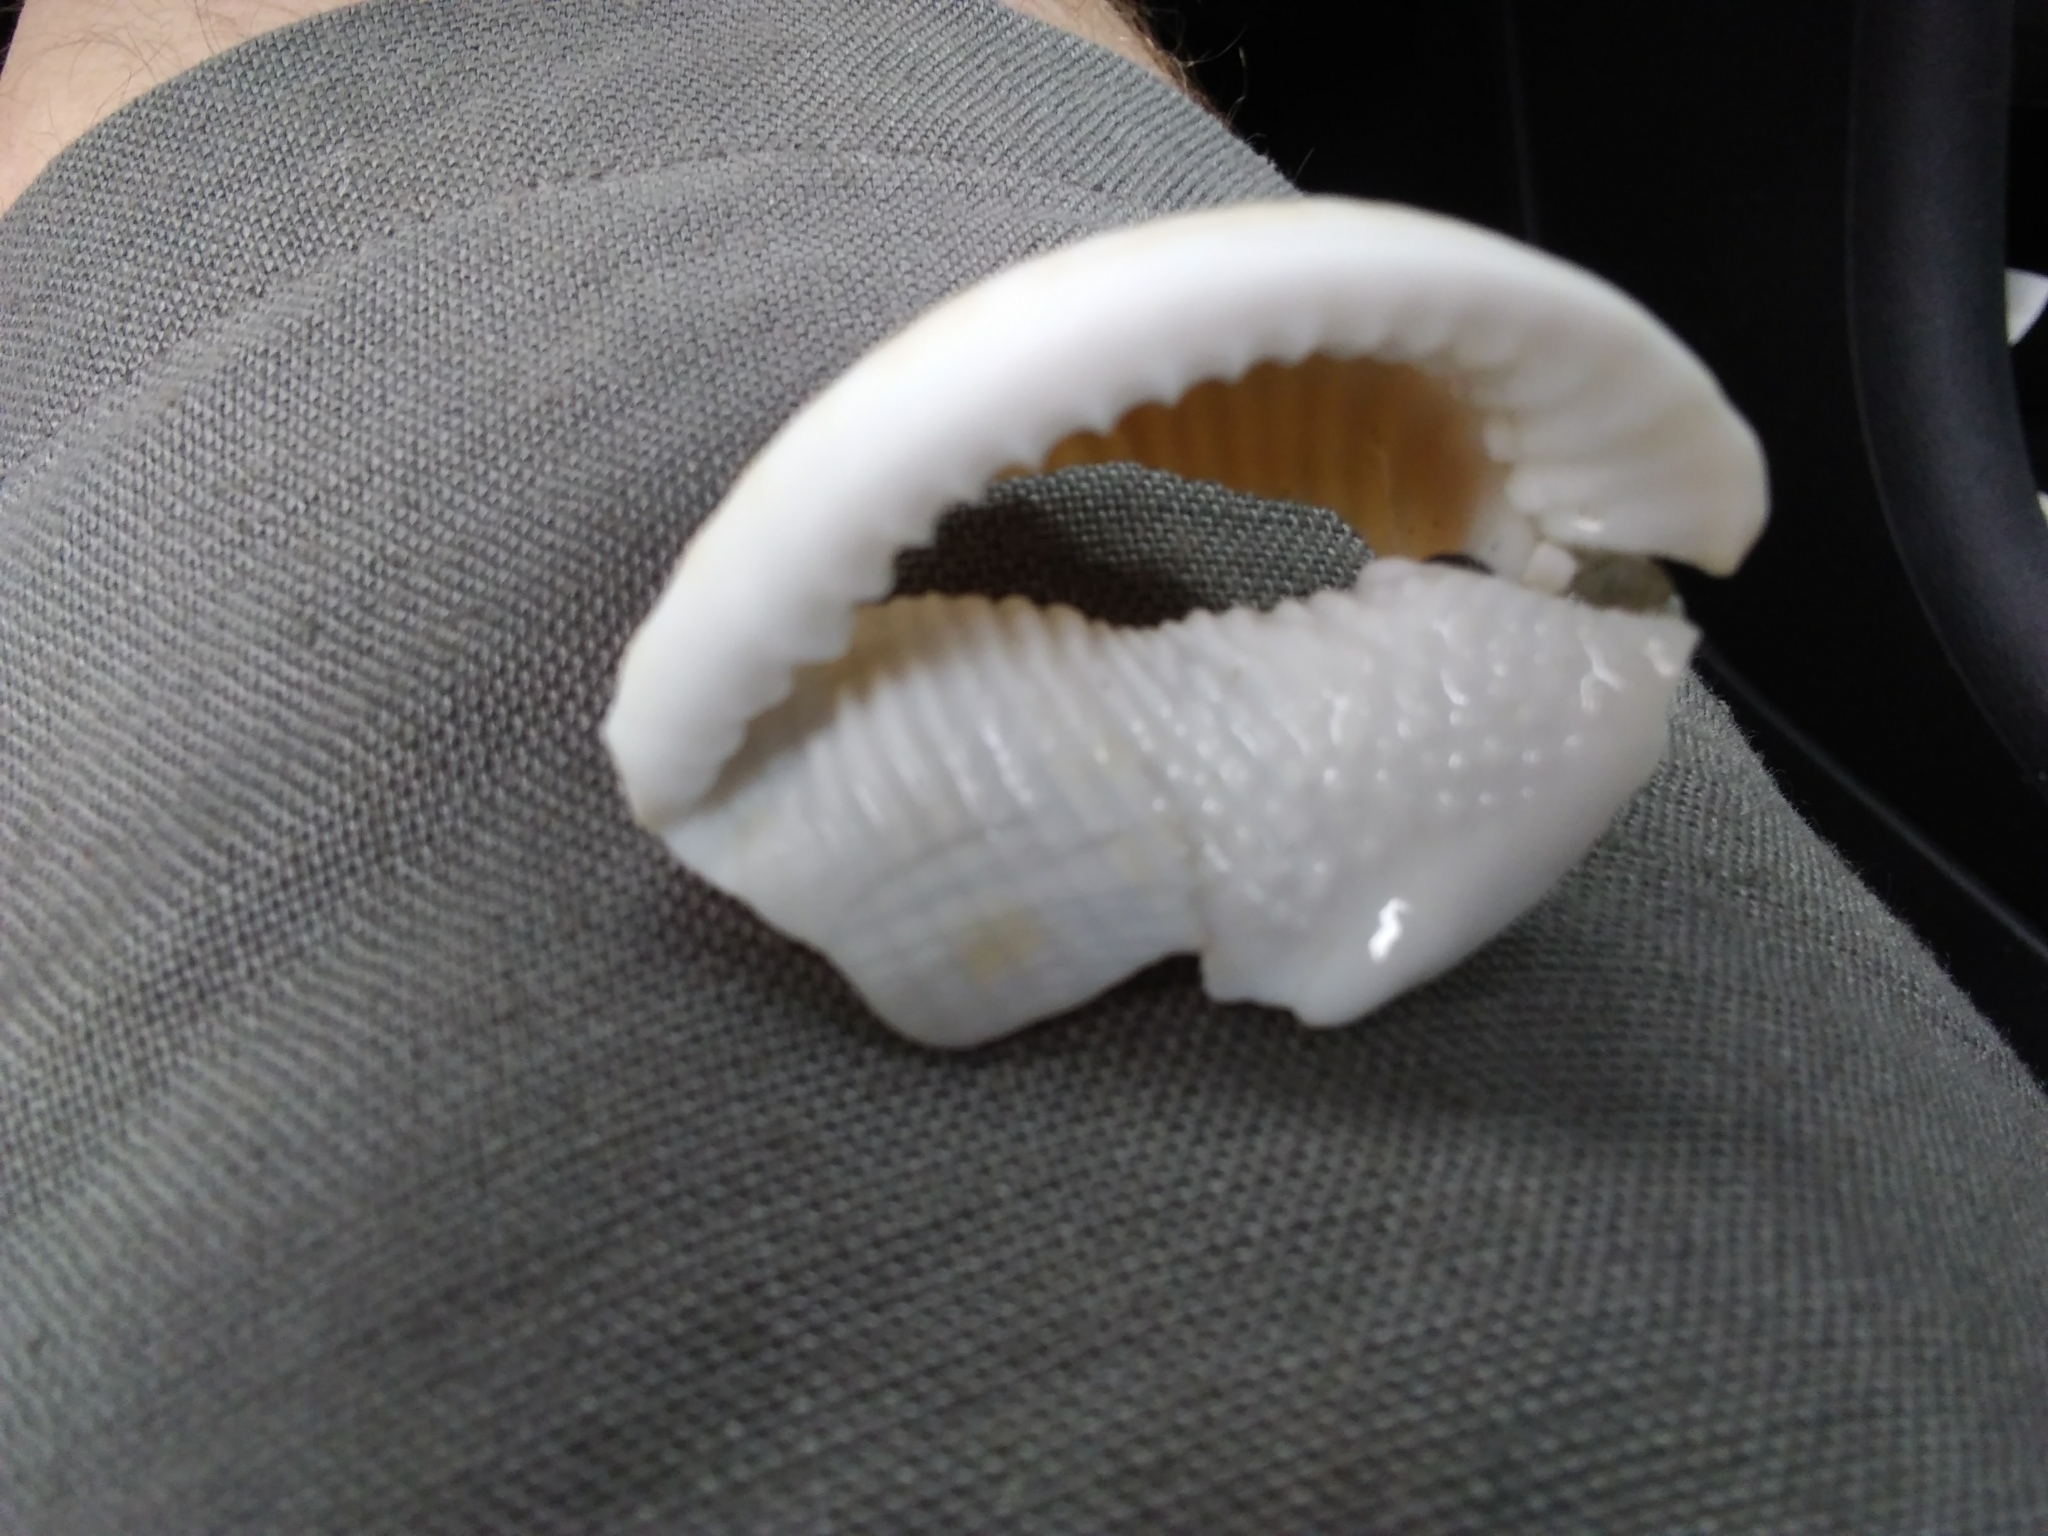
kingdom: Animalia
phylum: Mollusca
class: Gastropoda
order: Littorinimorpha
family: Cassidae
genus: Semicassis
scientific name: Semicassis granulata
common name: Scotch bonnet
